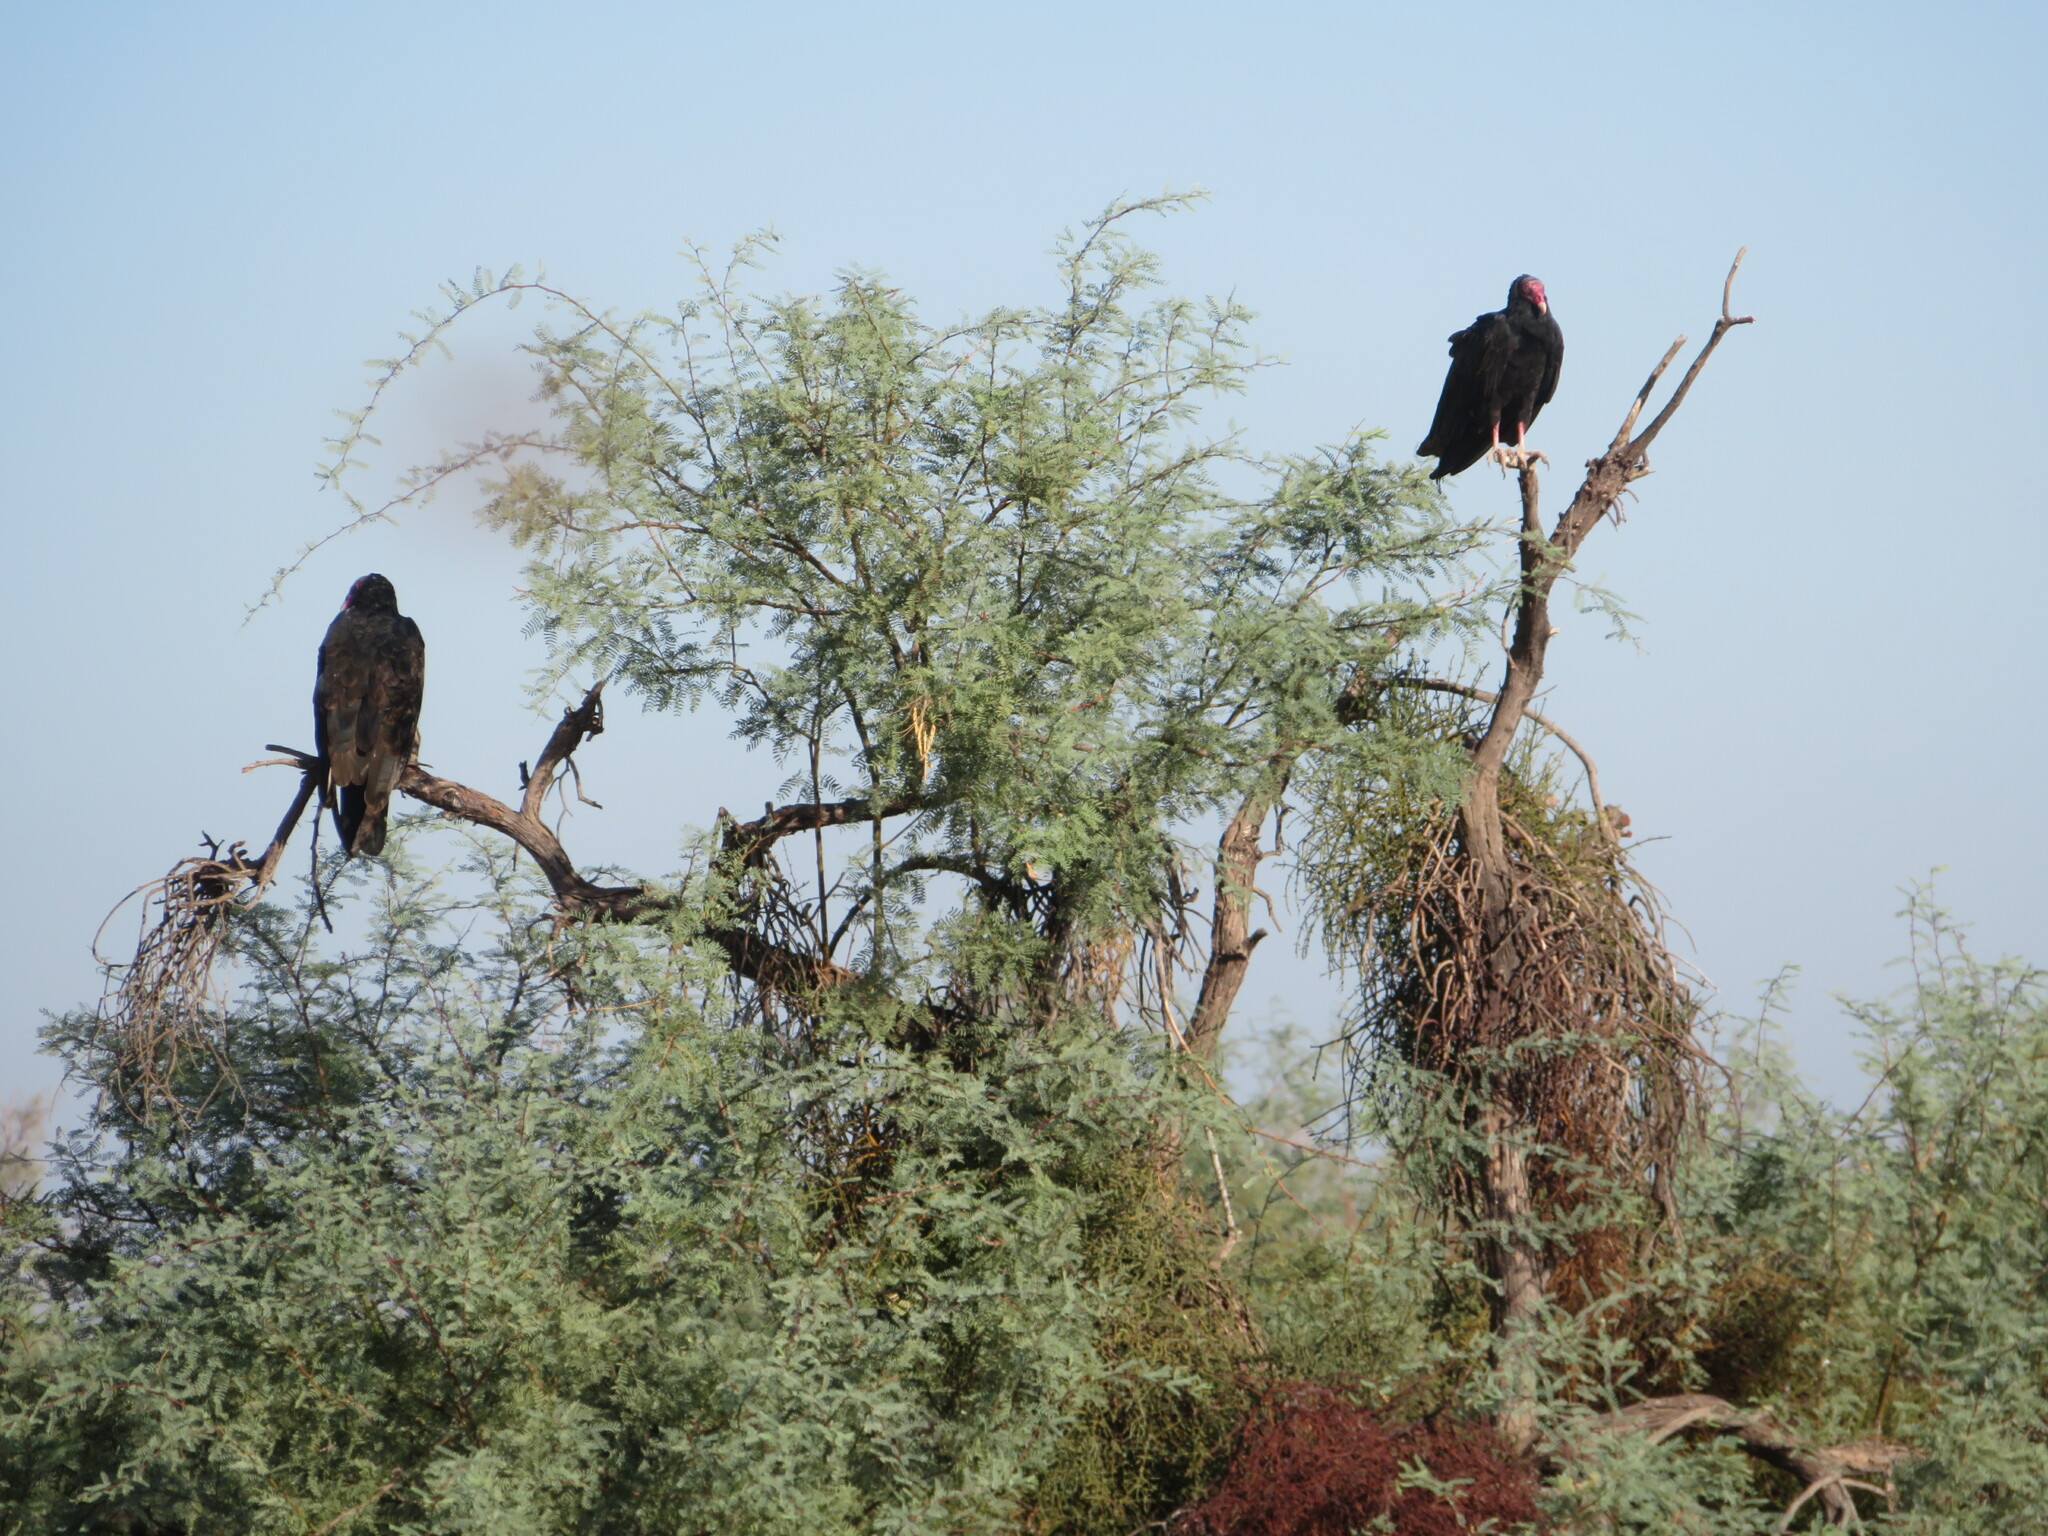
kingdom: Animalia
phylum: Chordata
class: Aves
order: Accipitriformes
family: Cathartidae
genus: Cathartes
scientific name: Cathartes aura
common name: Turkey vulture
